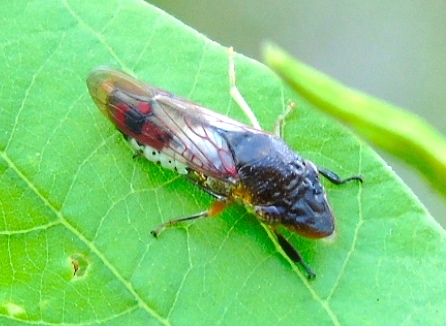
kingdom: Animalia
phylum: Arthropoda
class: Insecta
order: Hemiptera
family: Cicadellidae
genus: Homalodisca
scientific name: Homalodisca ichthyocephala
